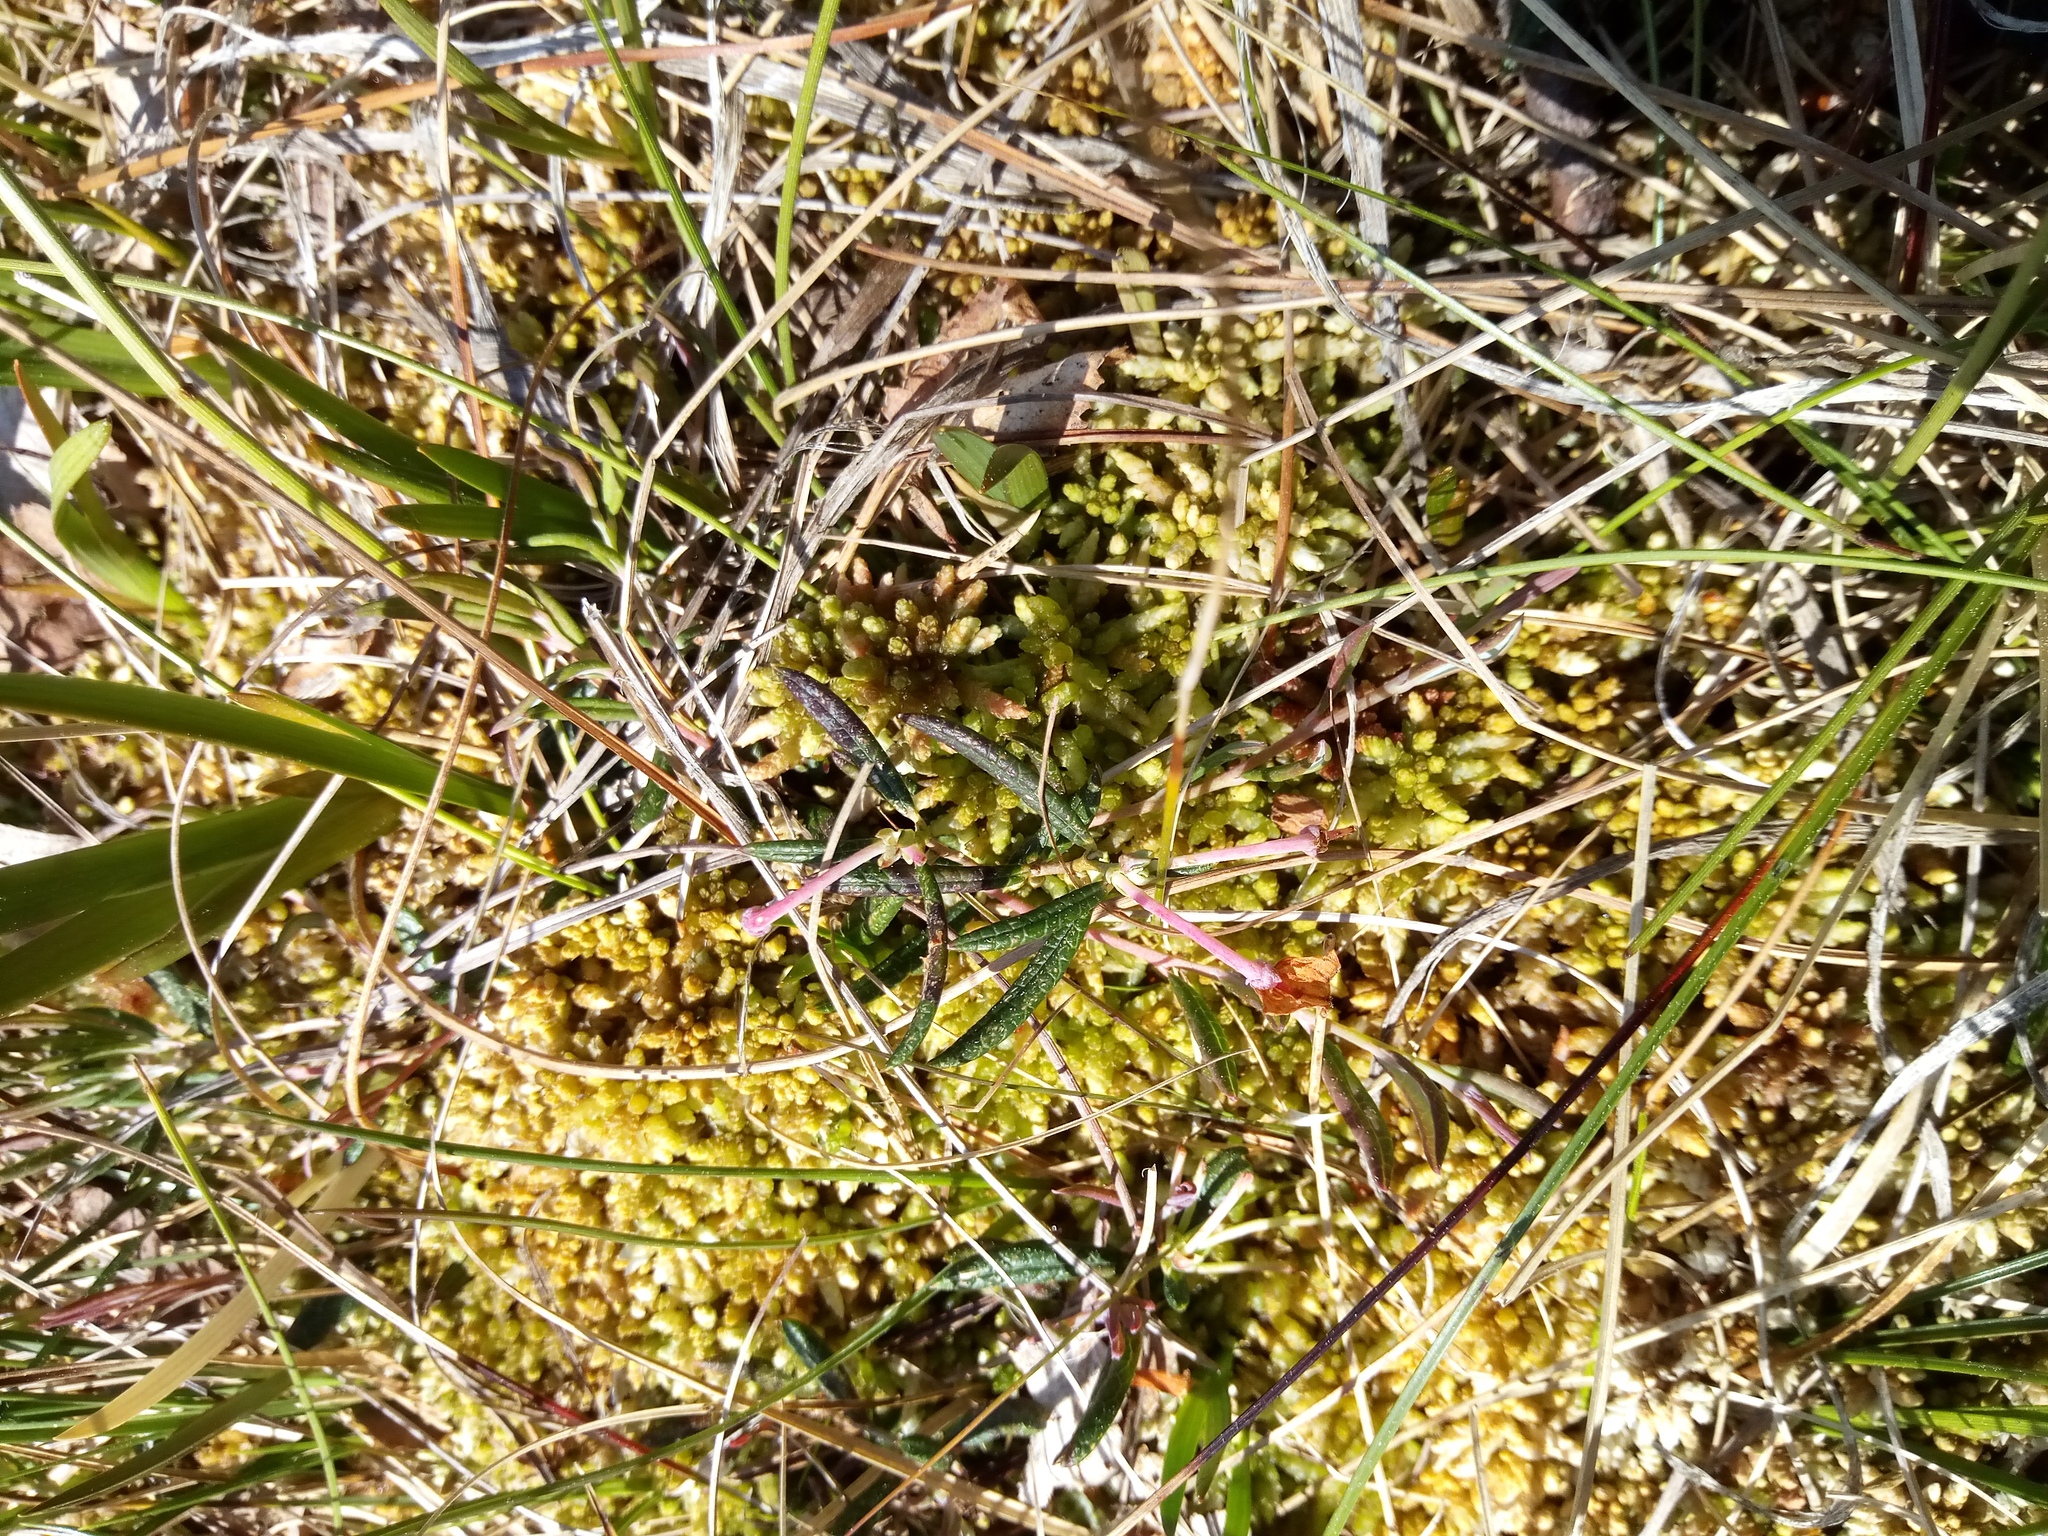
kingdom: Plantae
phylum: Tracheophyta
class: Magnoliopsida
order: Ericales
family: Ericaceae
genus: Andromeda
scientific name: Andromeda polifolia
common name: Bog-rosemary
